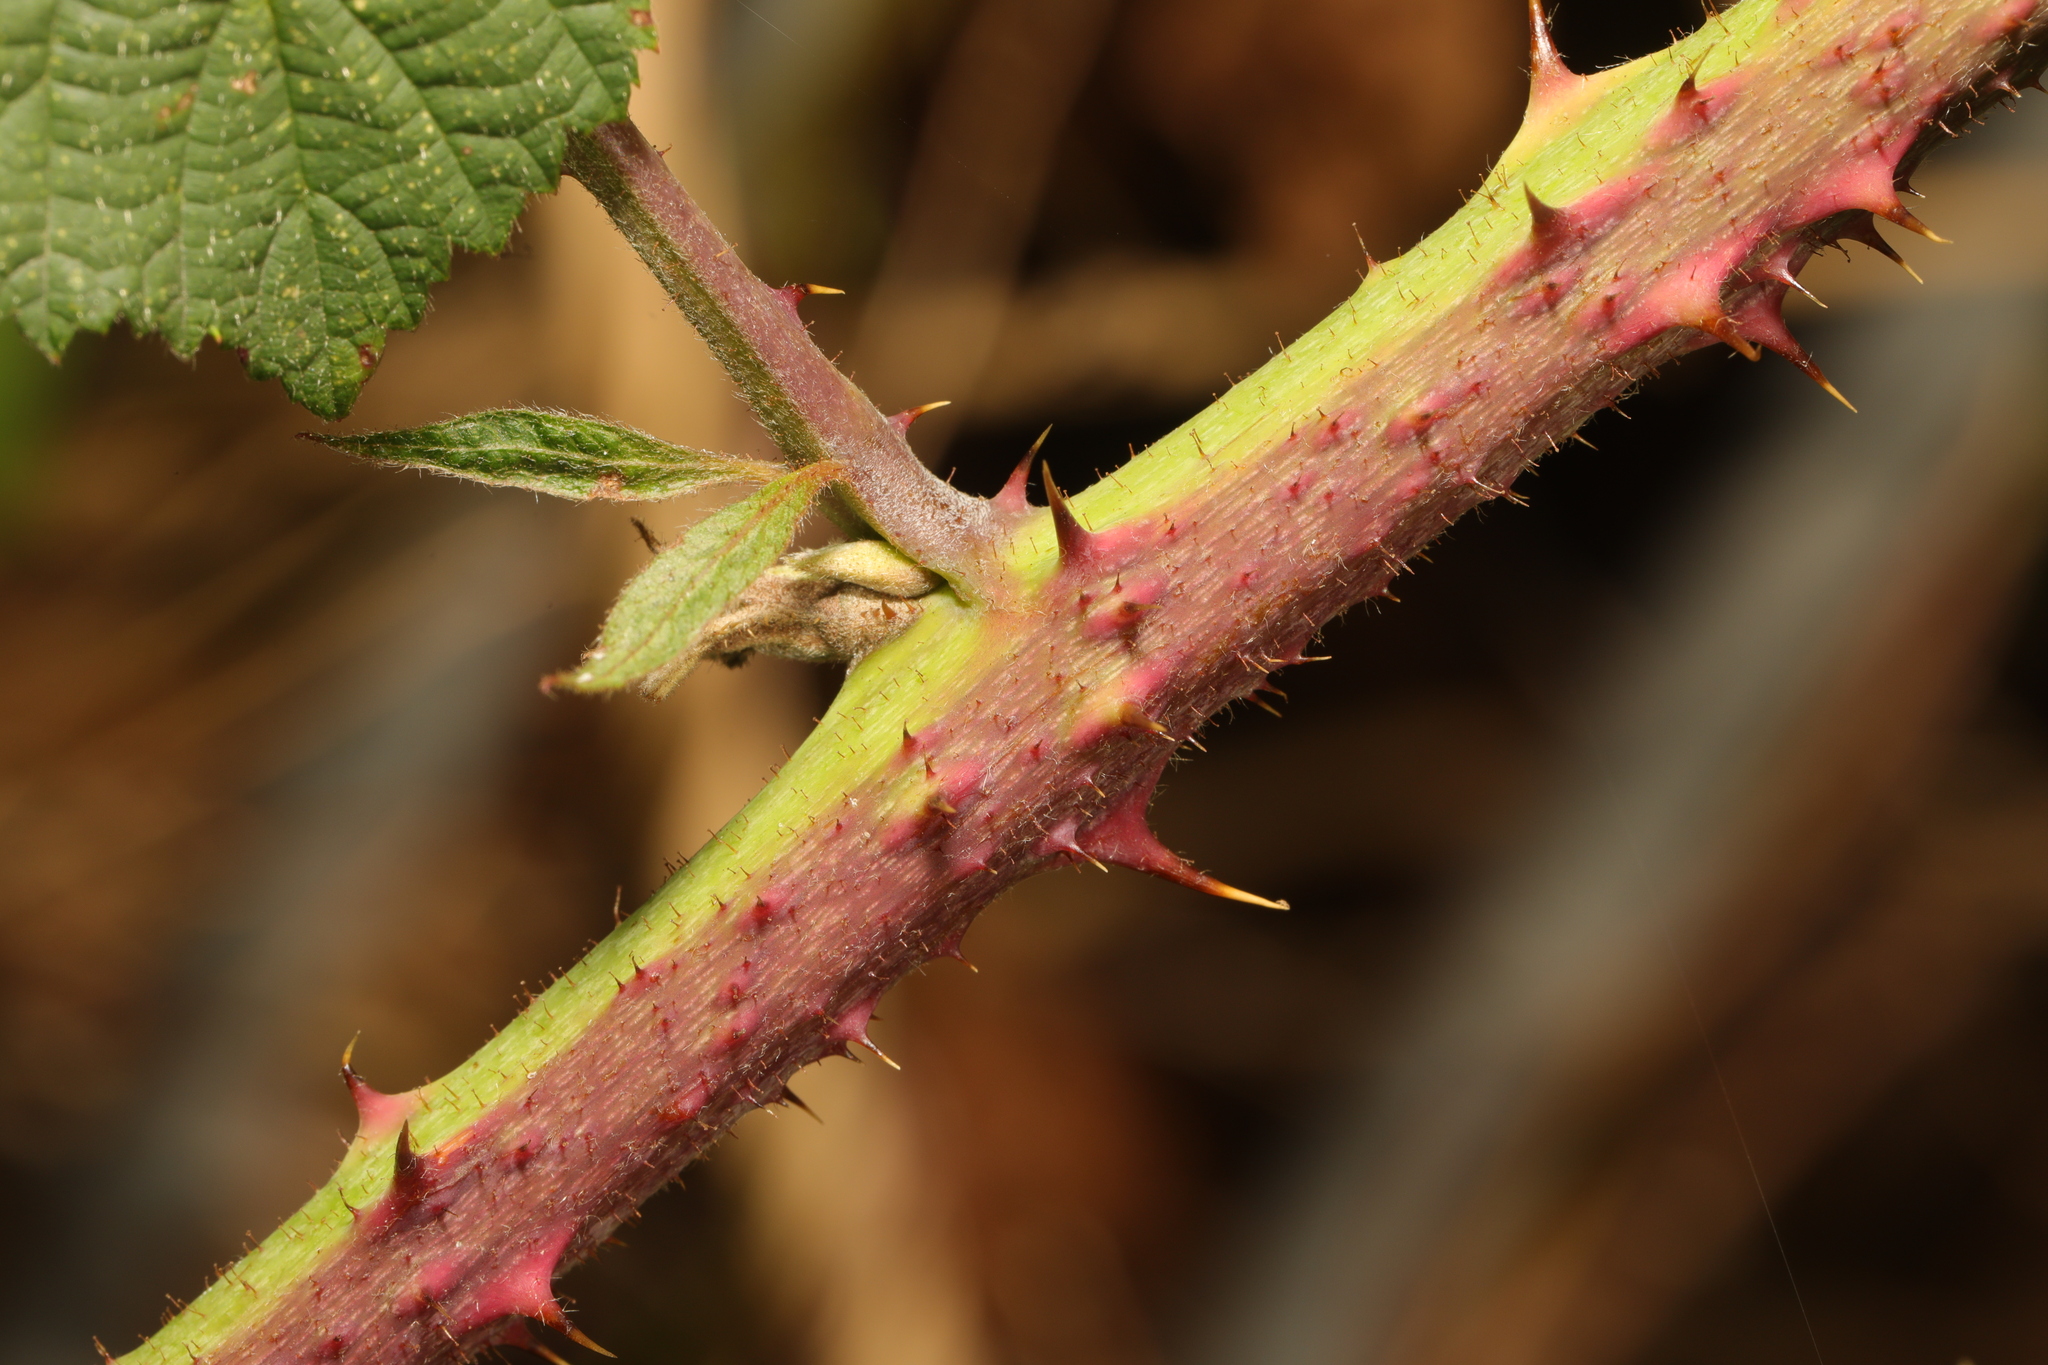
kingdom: Plantae
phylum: Tracheophyta
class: Magnoliopsida
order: Rosales
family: Rosaceae
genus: Rubus
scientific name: Rubus horrefactus
